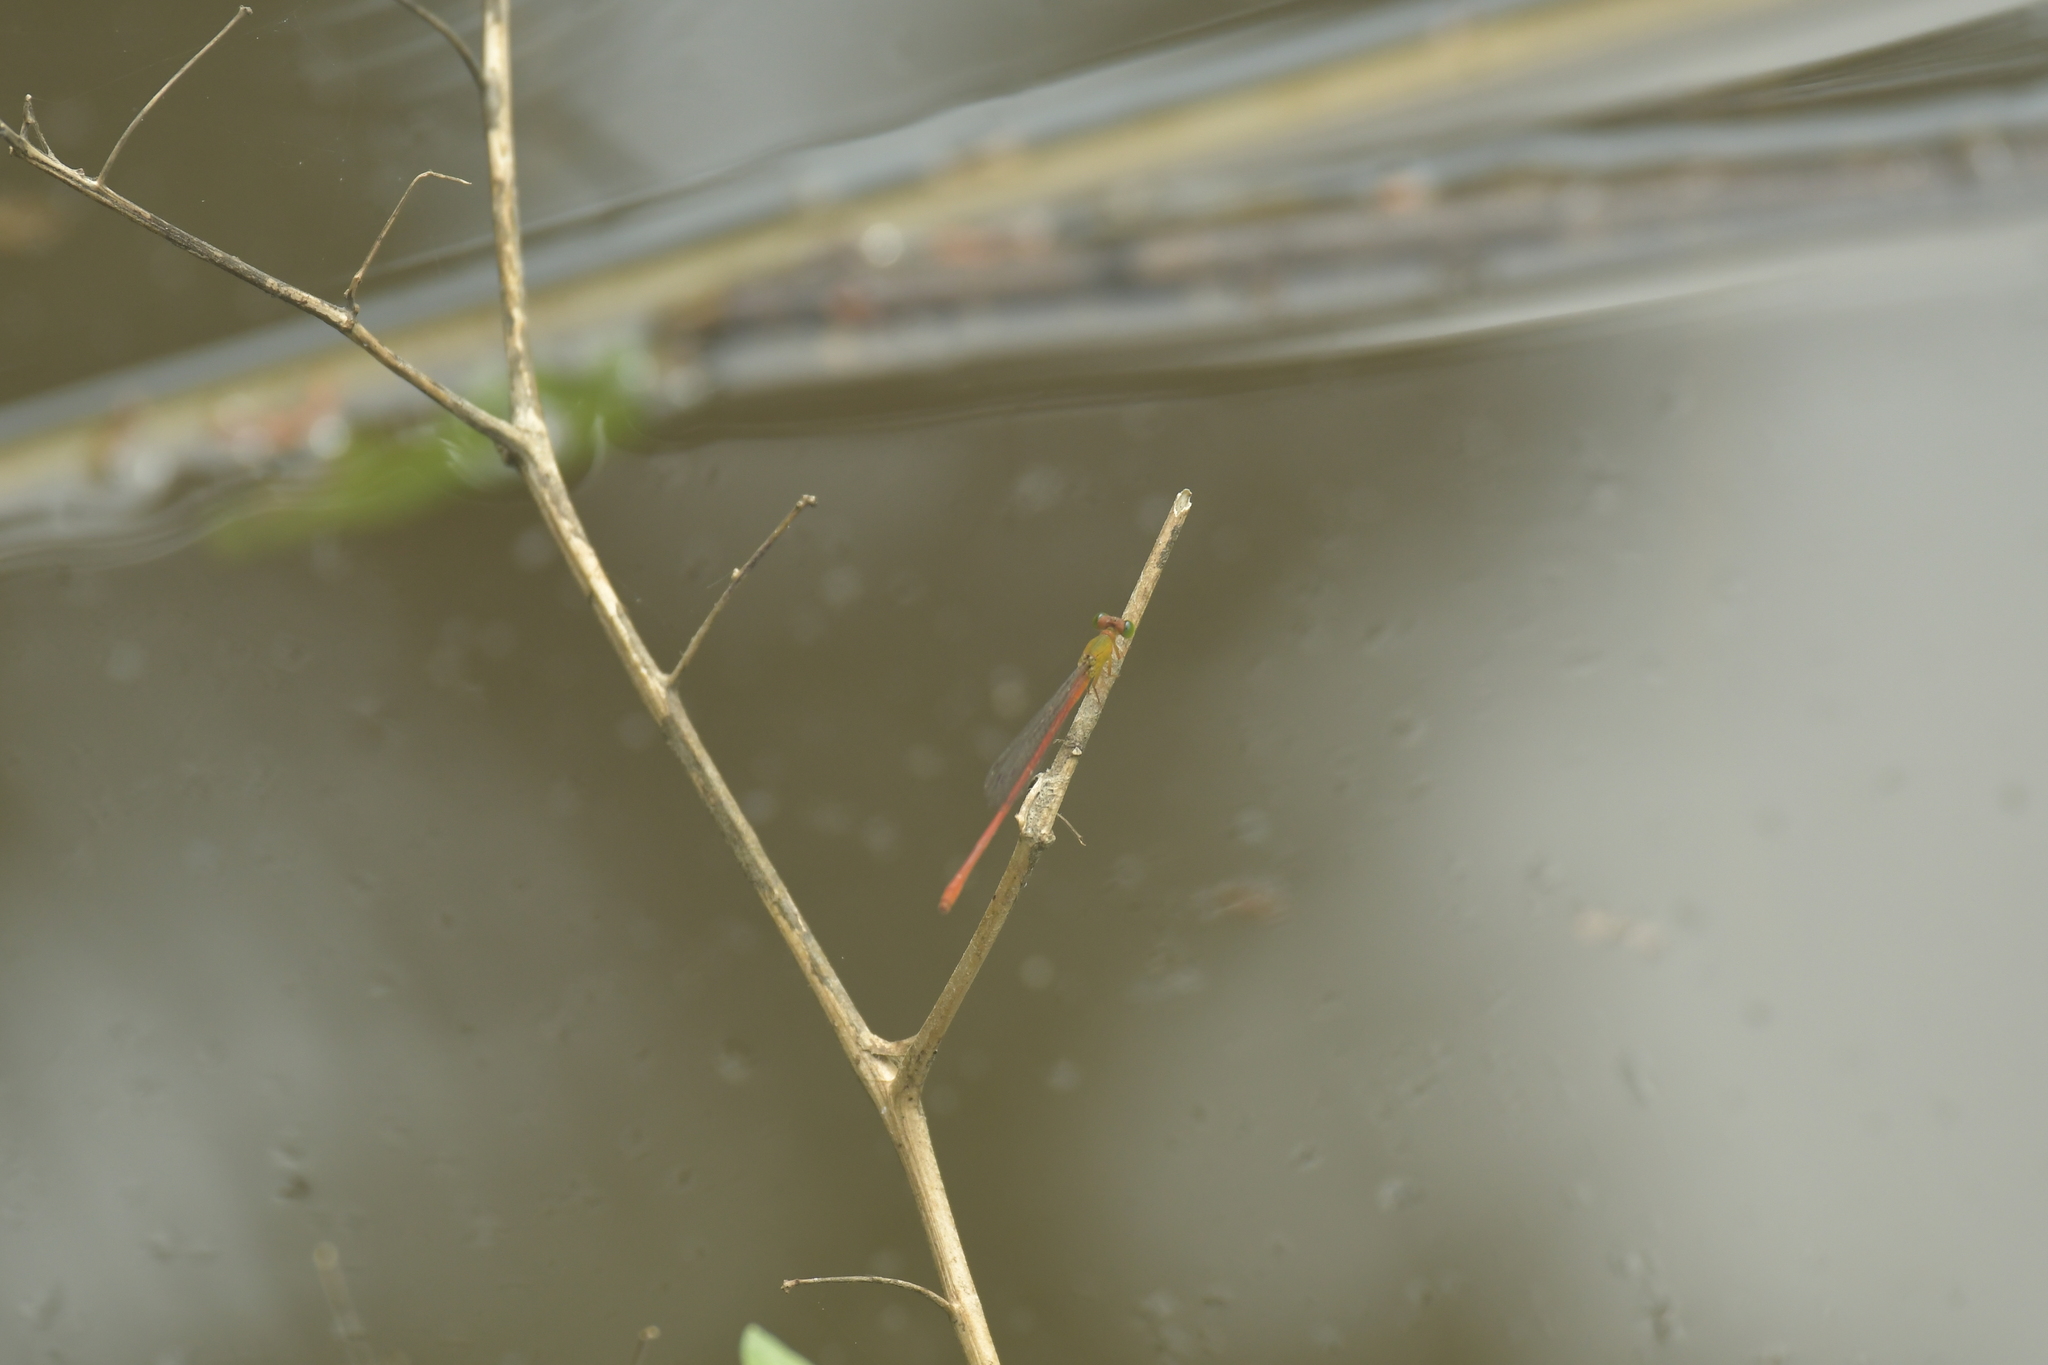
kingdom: Animalia
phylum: Arthropoda
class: Insecta
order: Odonata
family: Coenagrionidae
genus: Ceriagrion
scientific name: Ceriagrion auranticum
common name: Orange-tailed sprite
